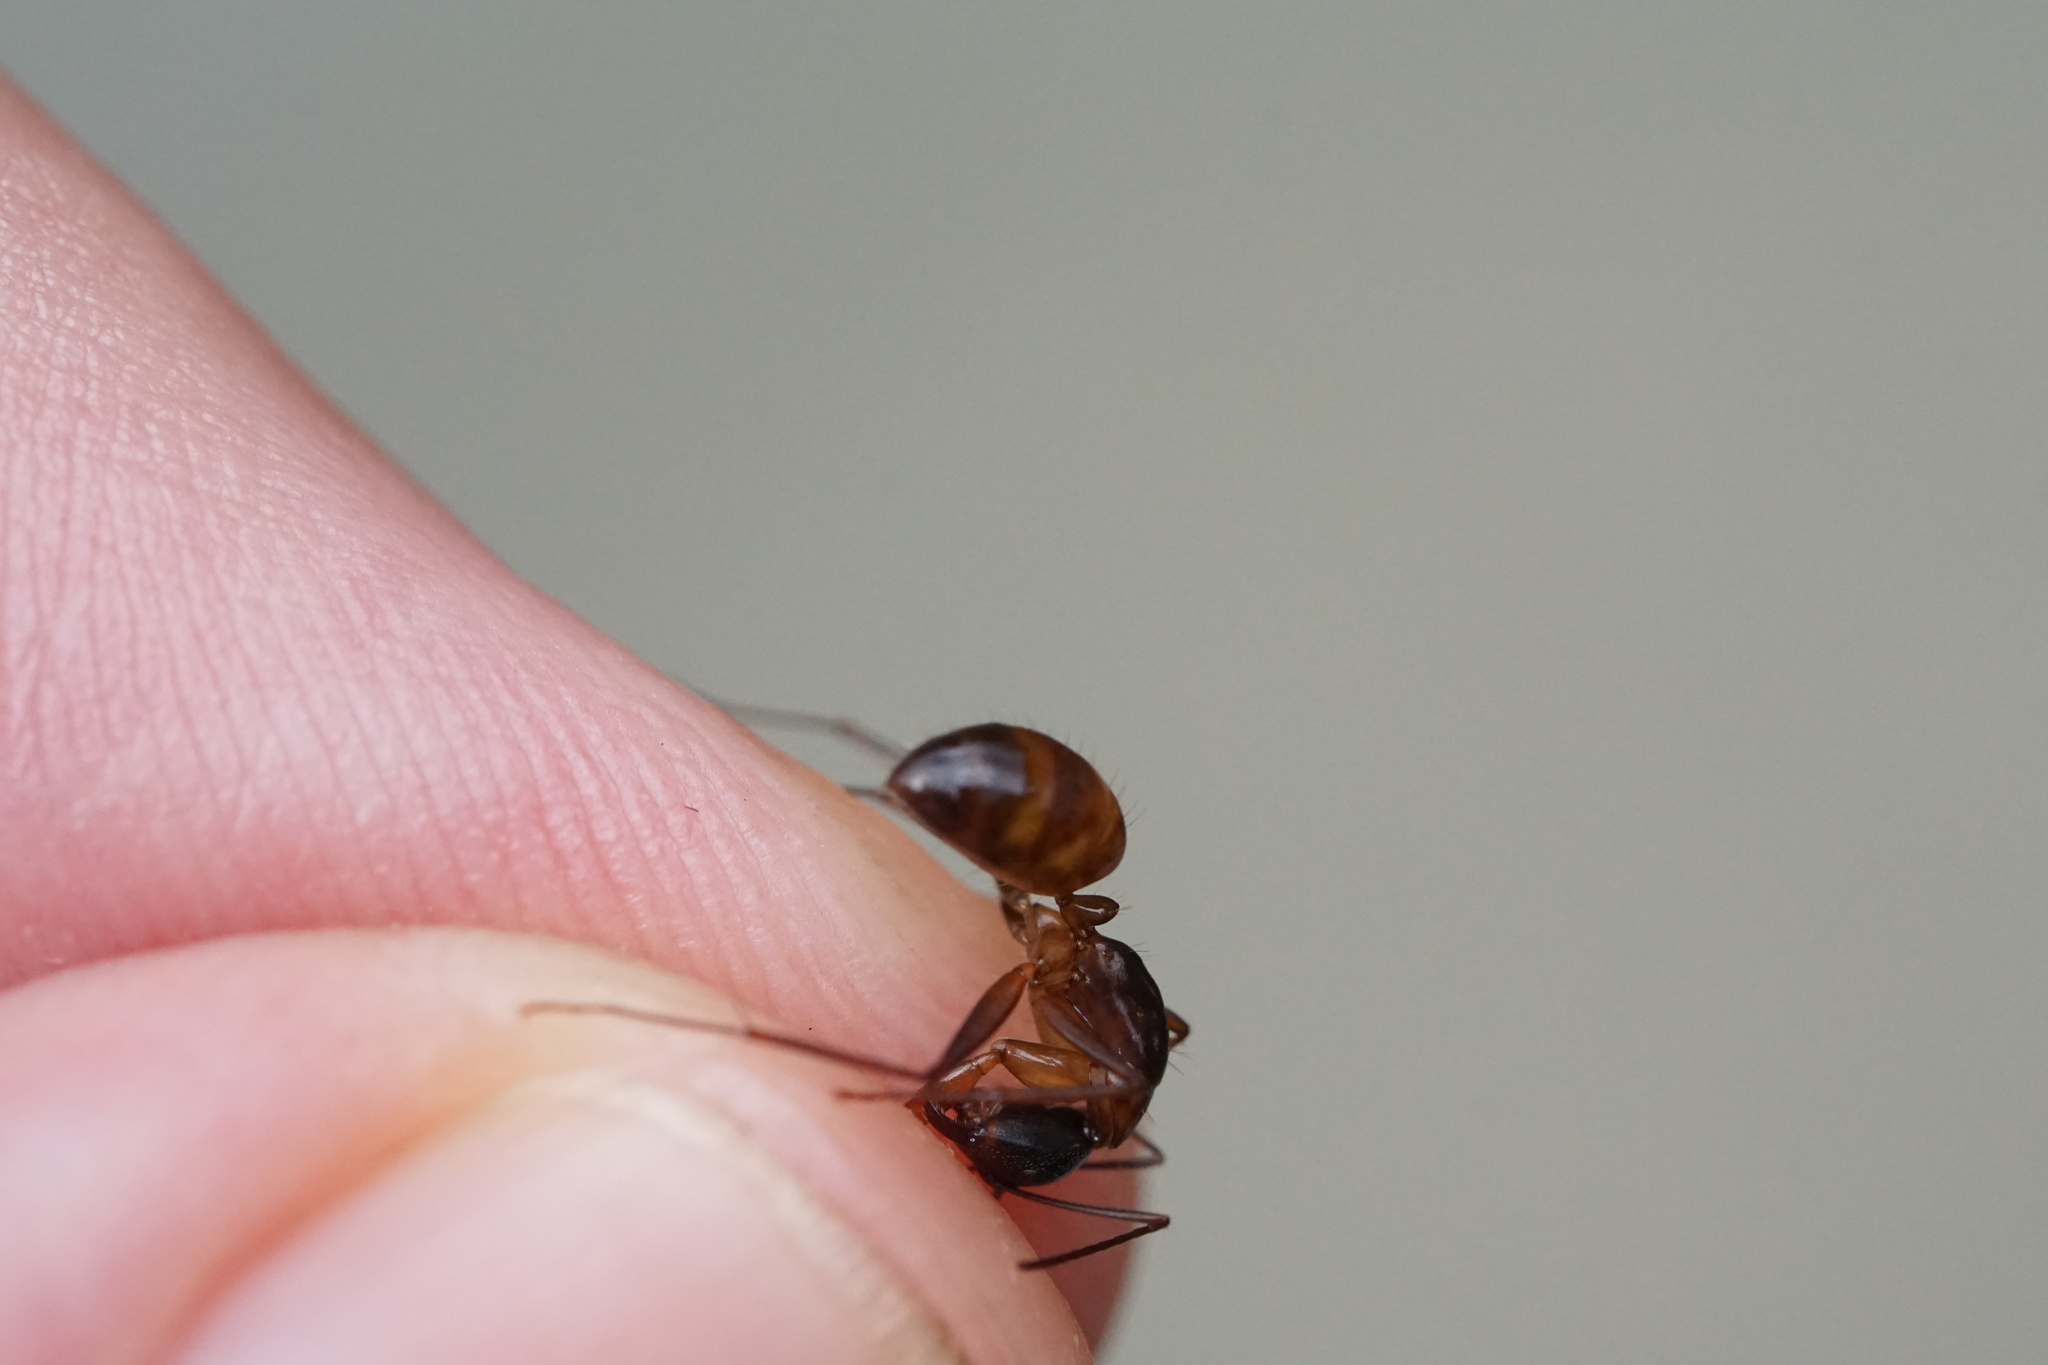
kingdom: Animalia
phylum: Arthropoda
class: Insecta
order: Hymenoptera
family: Formicidae
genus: Camponotus
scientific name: Camponotus americanus
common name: American carpenter ant
